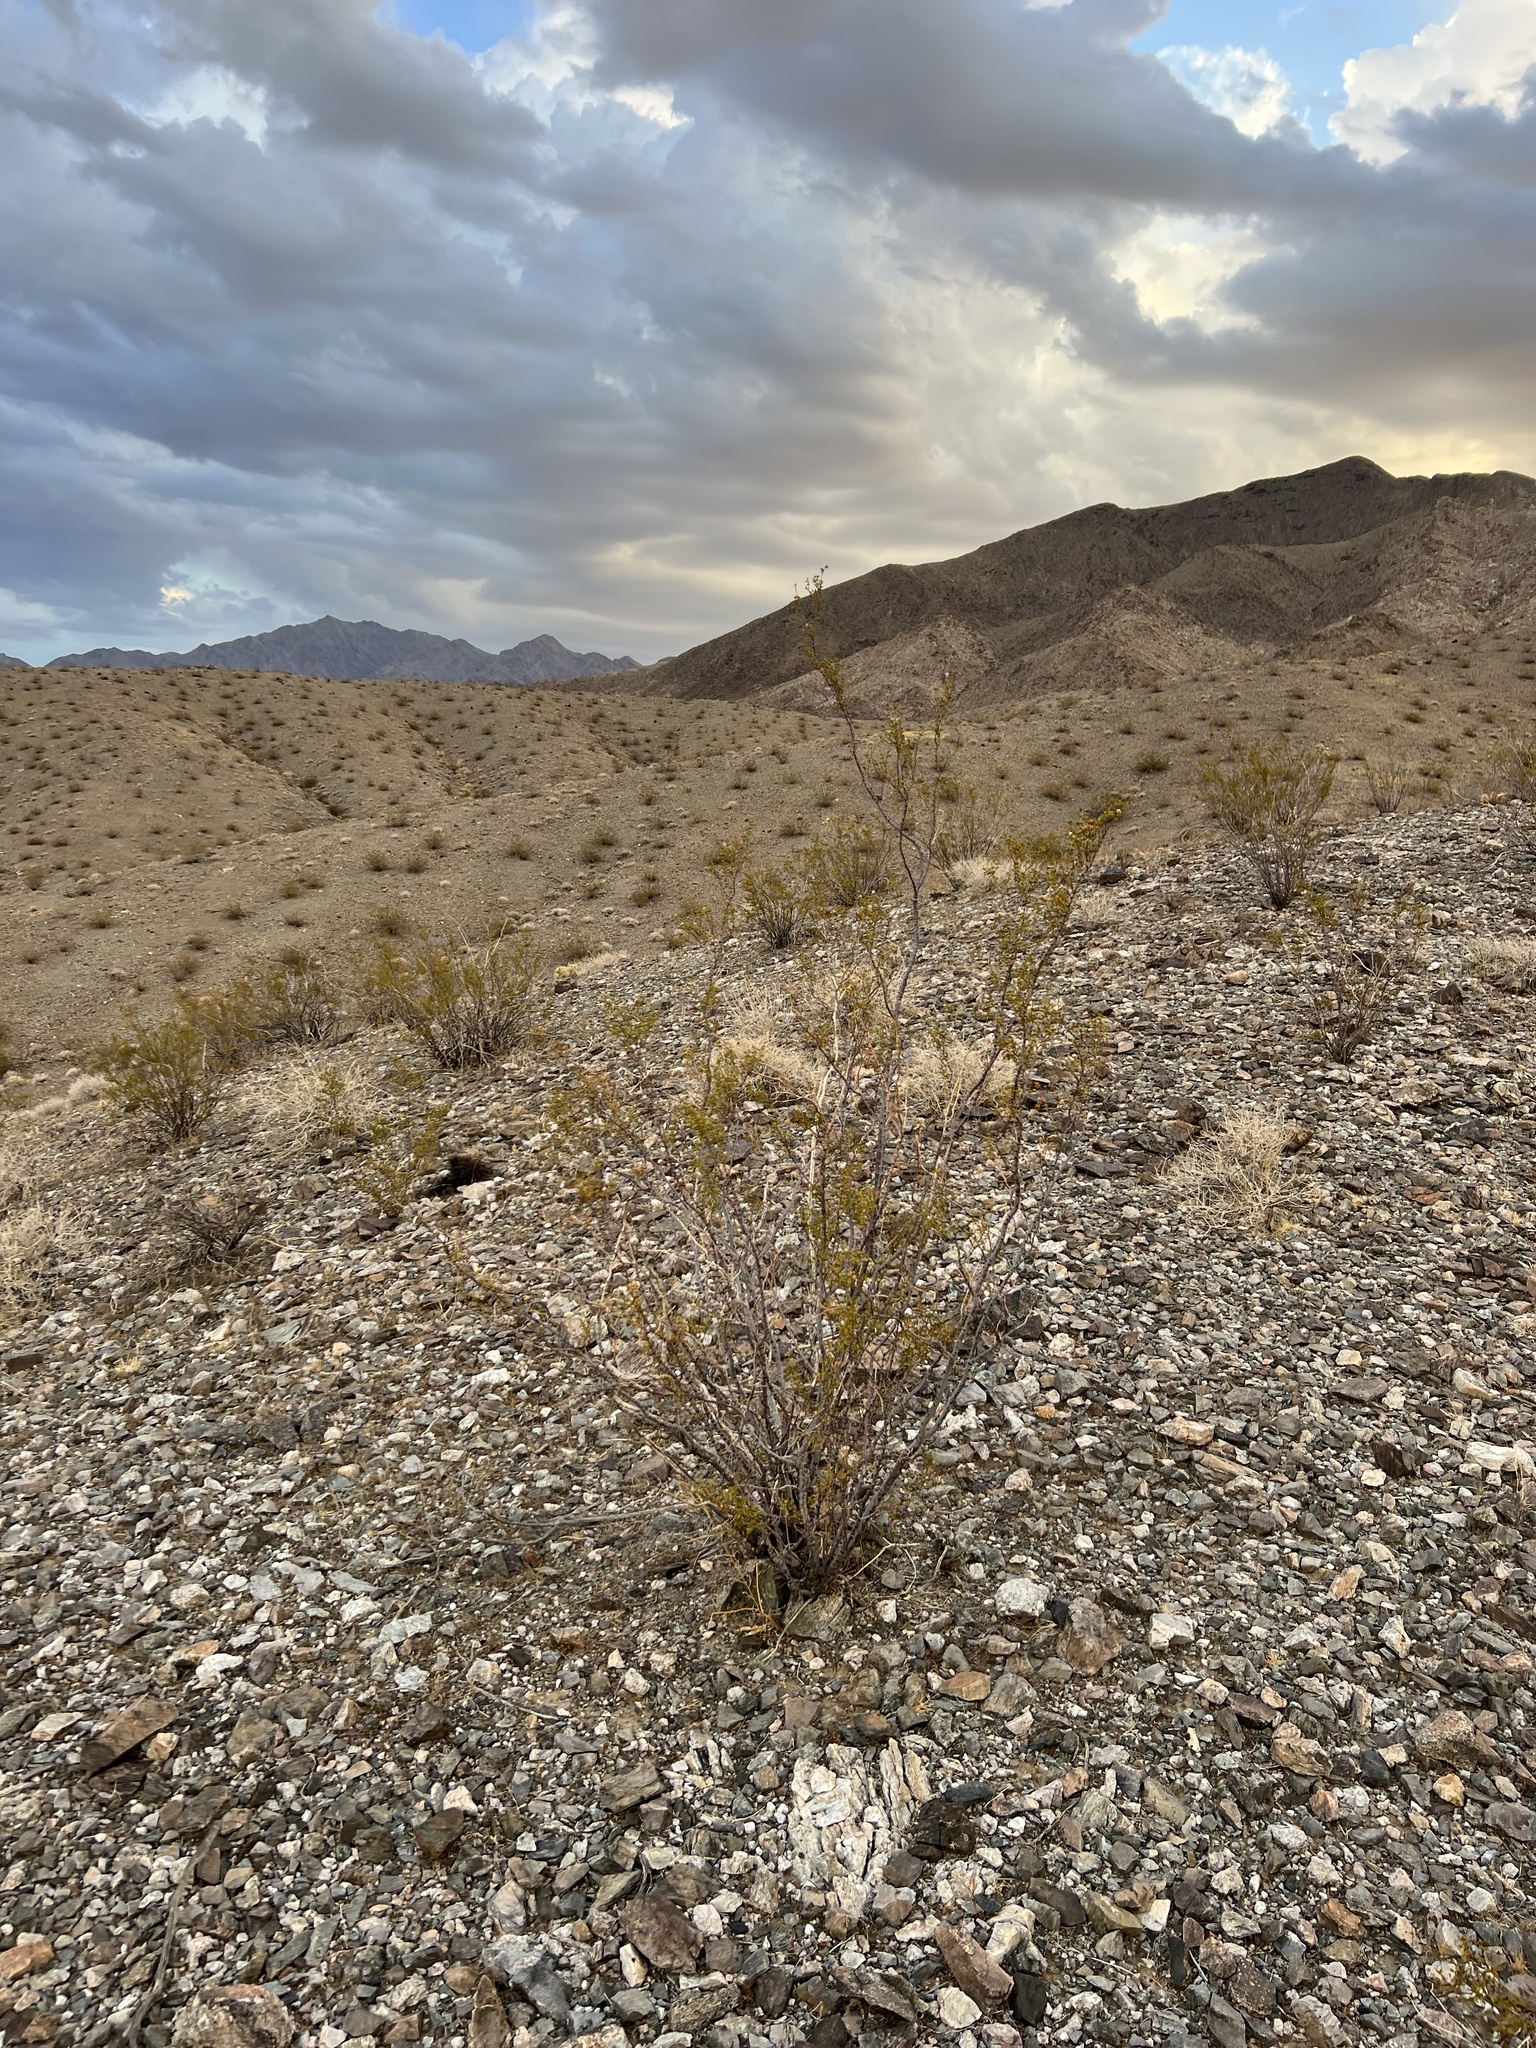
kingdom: Plantae
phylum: Tracheophyta
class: Magnoliopsida
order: Zygophyllales
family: Zygophyllaceae
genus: Larrea
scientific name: Larrea tridentata
